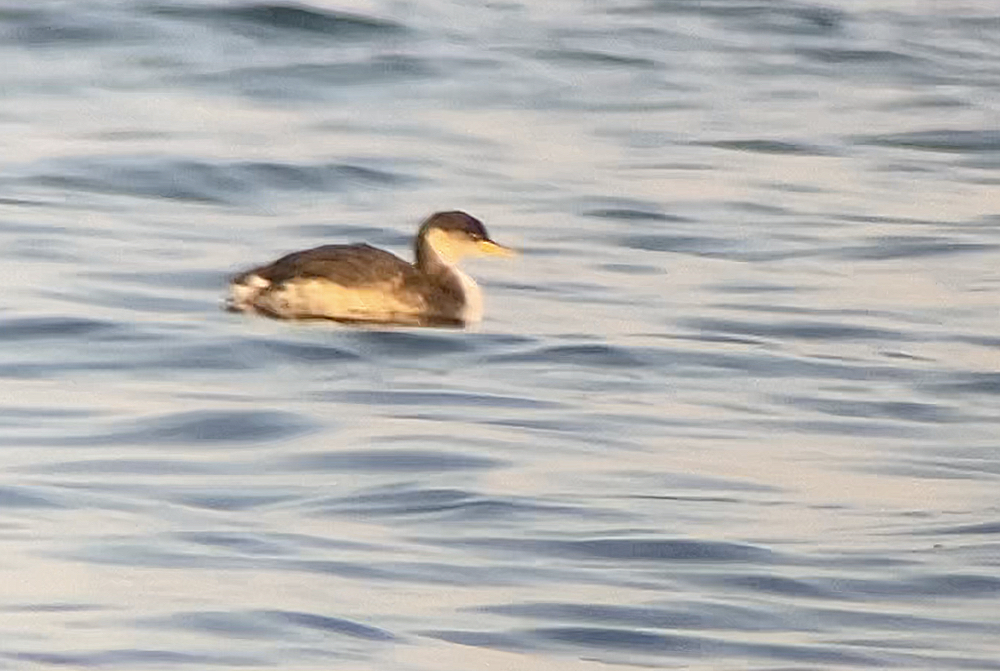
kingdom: Animalia
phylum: Chordata
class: Aves
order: Podicipediformes
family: Podicipedidae
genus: Podiceps
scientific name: Podiceps grisegena
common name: Red-necked grebe
